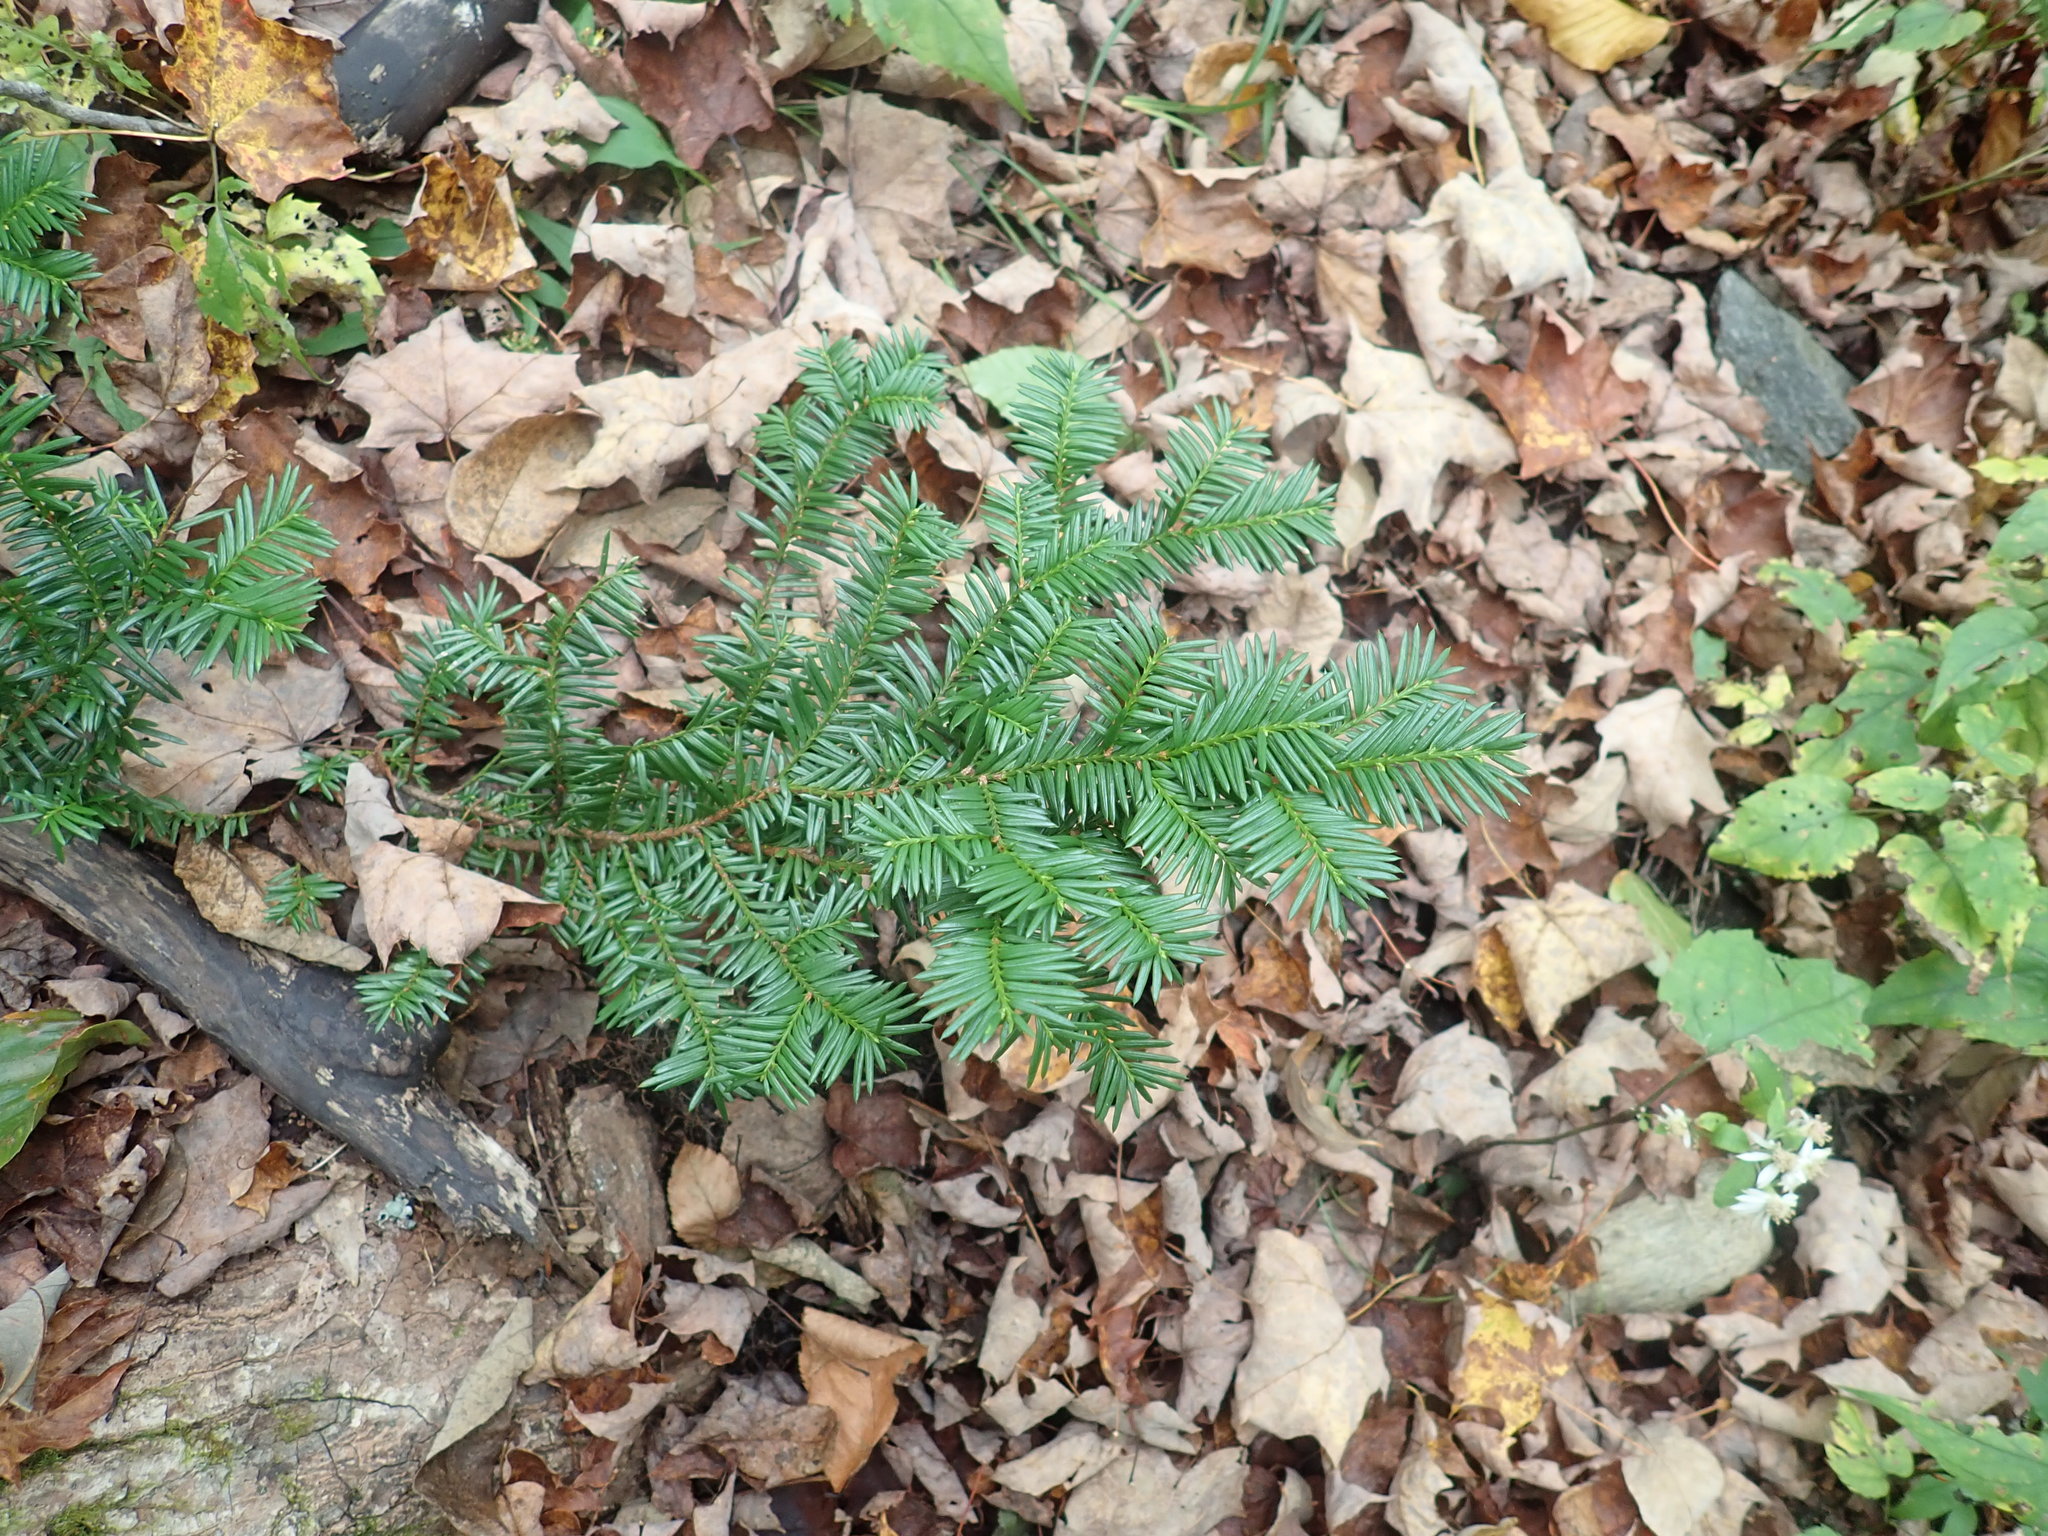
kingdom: Plantae
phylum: Tracheophyta
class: Pinopsida
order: Pinales
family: Taxaceae
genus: Taxus
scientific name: Taxus canadensis
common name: American yew
